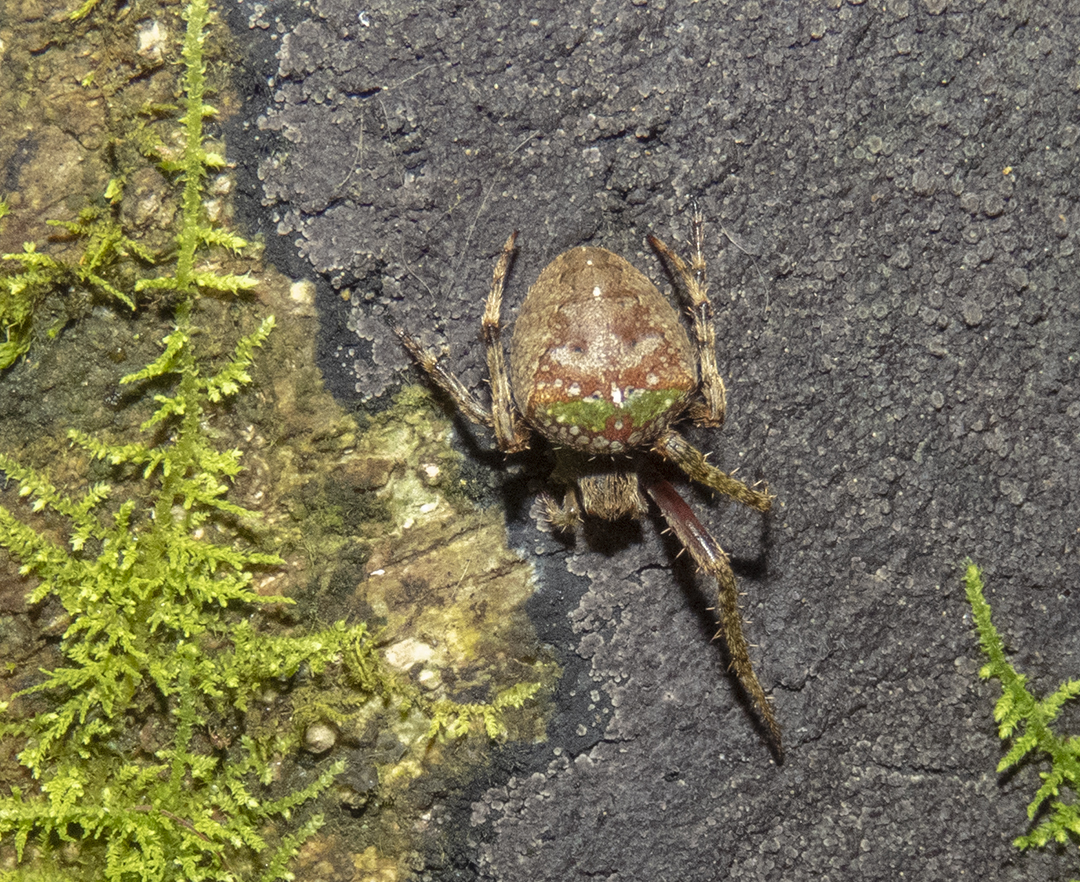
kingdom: Animalia
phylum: Arthropoda
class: Arachnida
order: Araneae
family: Araneidae
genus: Zealaranea
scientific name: Zealaranea crassa
